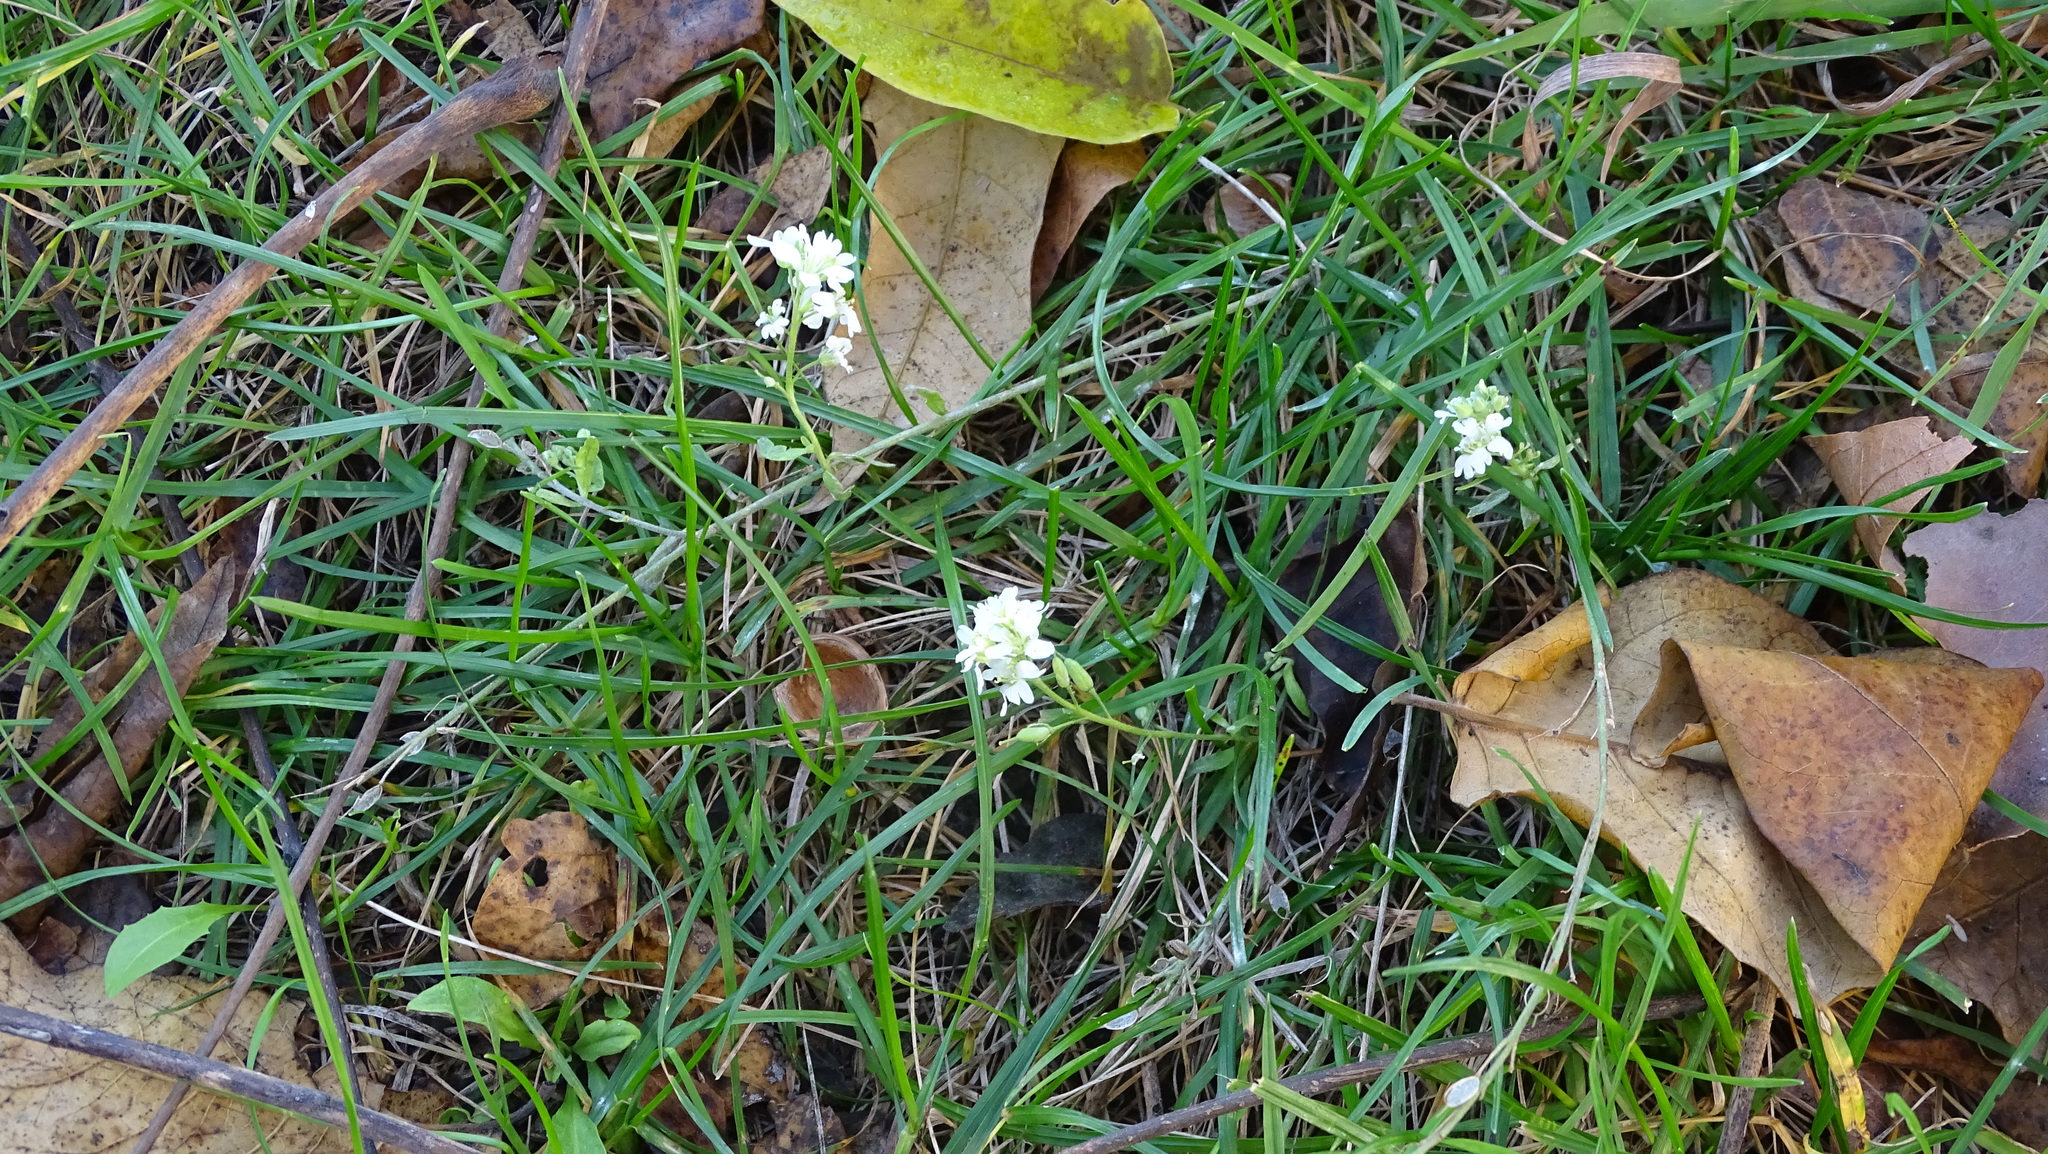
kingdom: Plantae
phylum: Tracheophyta
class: Magnoliopsida
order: Brassicales
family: Brassicaceae
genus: Berteroa
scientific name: Berteroa incana
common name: Hoary alison
